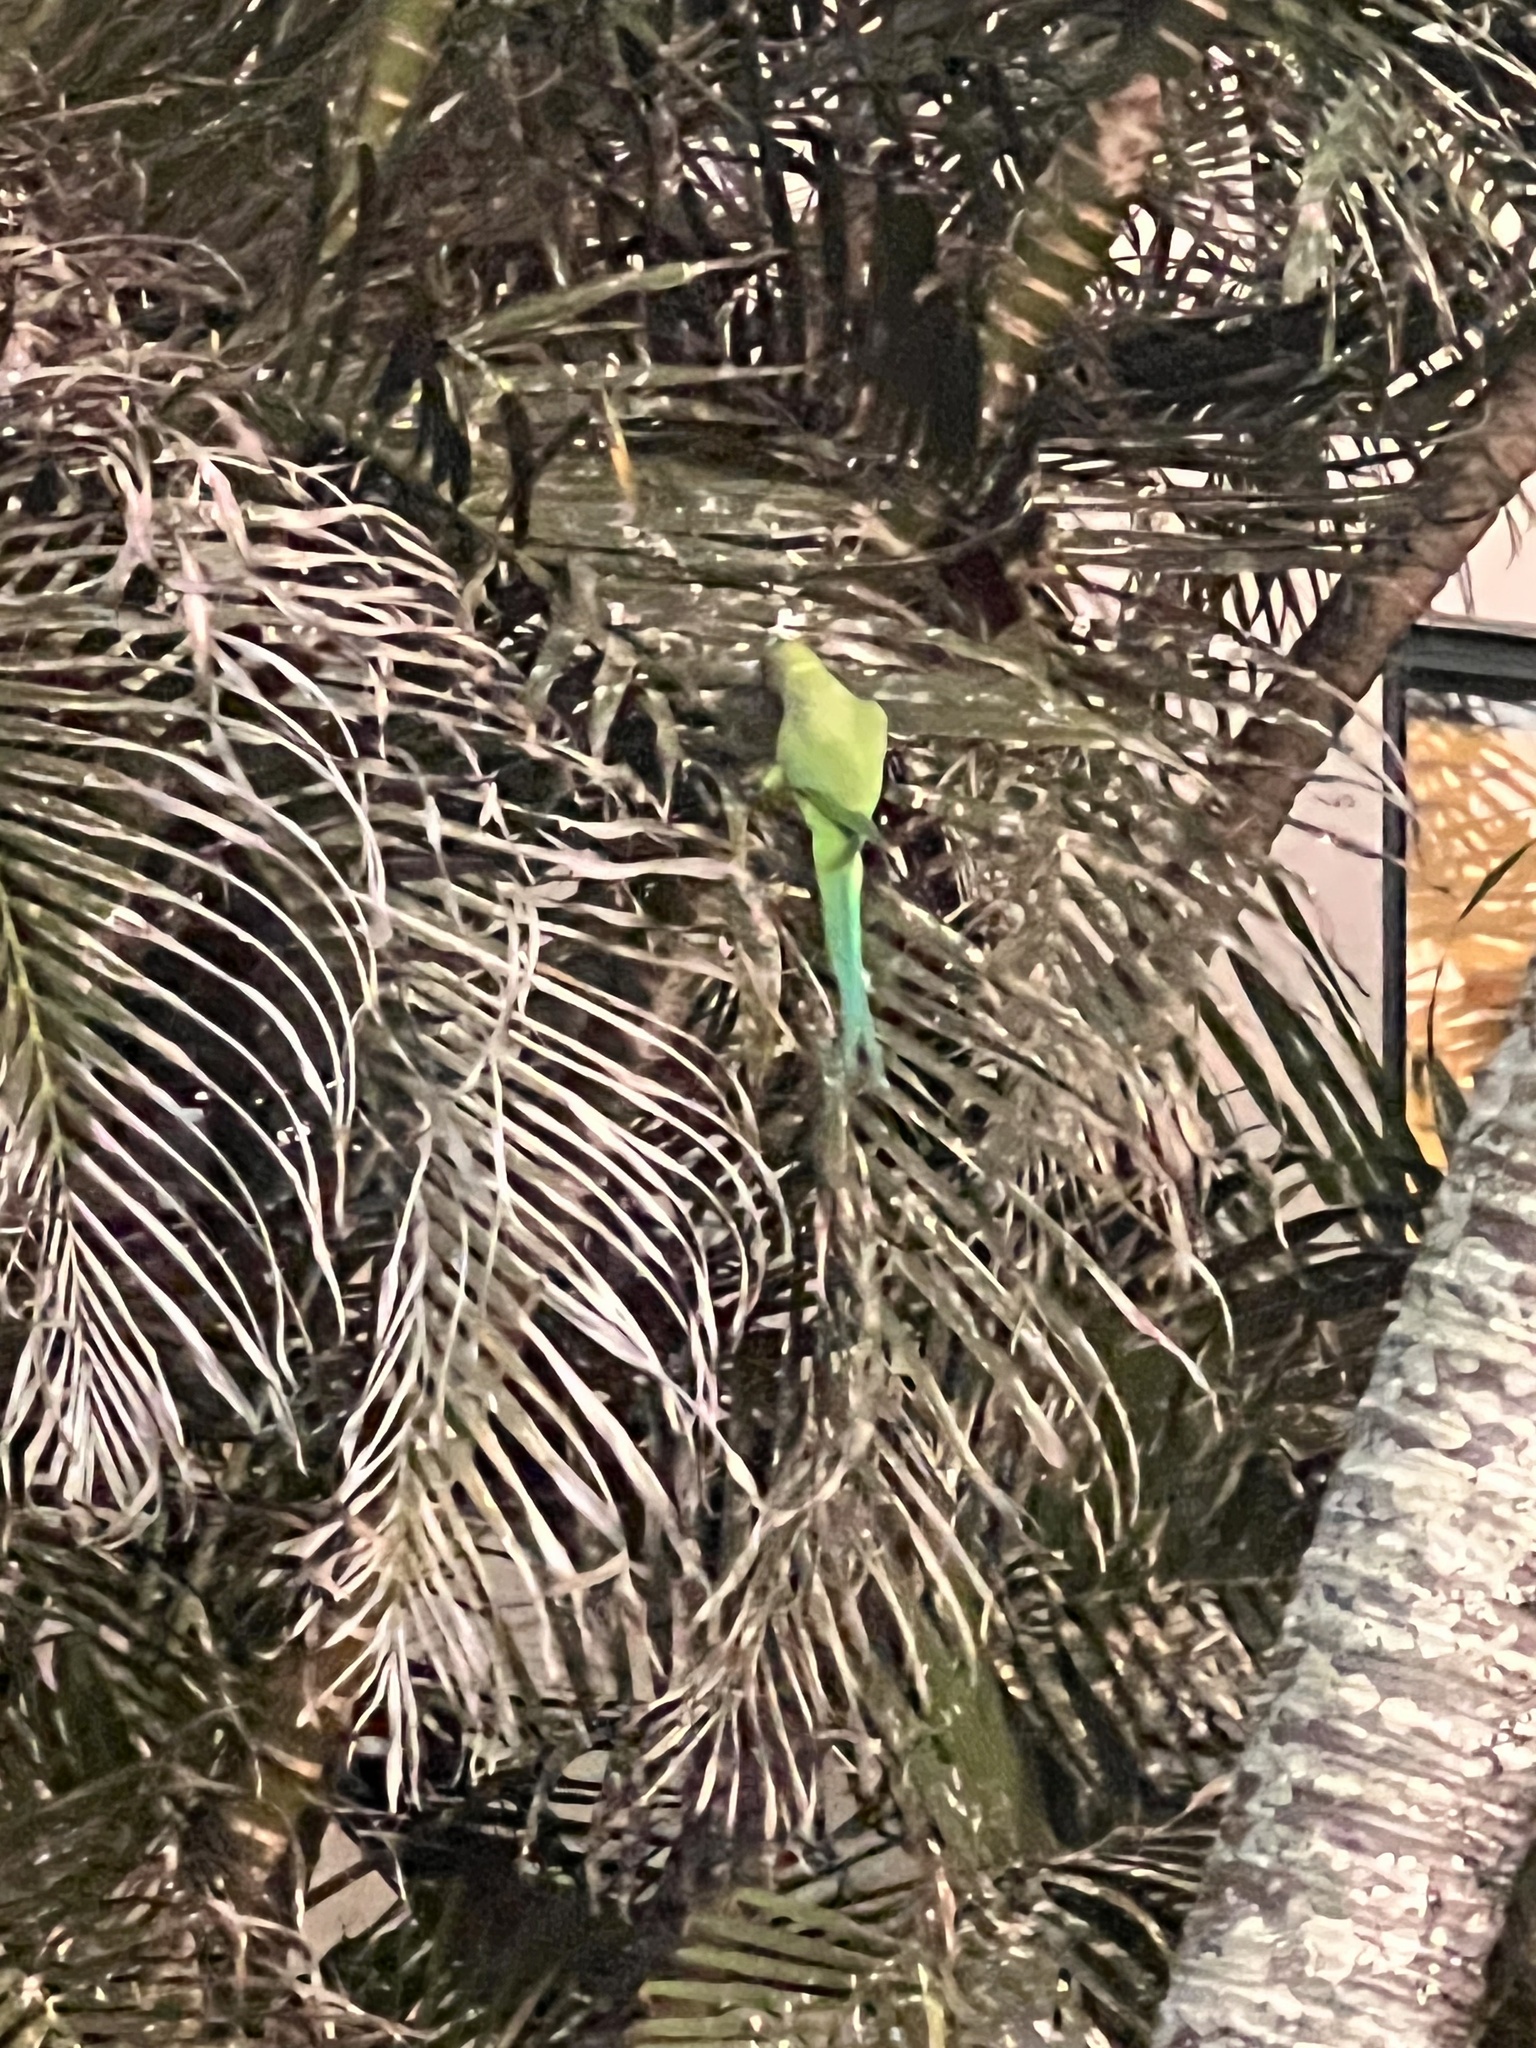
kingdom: Animalia
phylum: Chordata
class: Aves
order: Psittaciformes
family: Psittacidae
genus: Psittacula
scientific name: Psittacula krameri
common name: Rose-ringed parakeet
